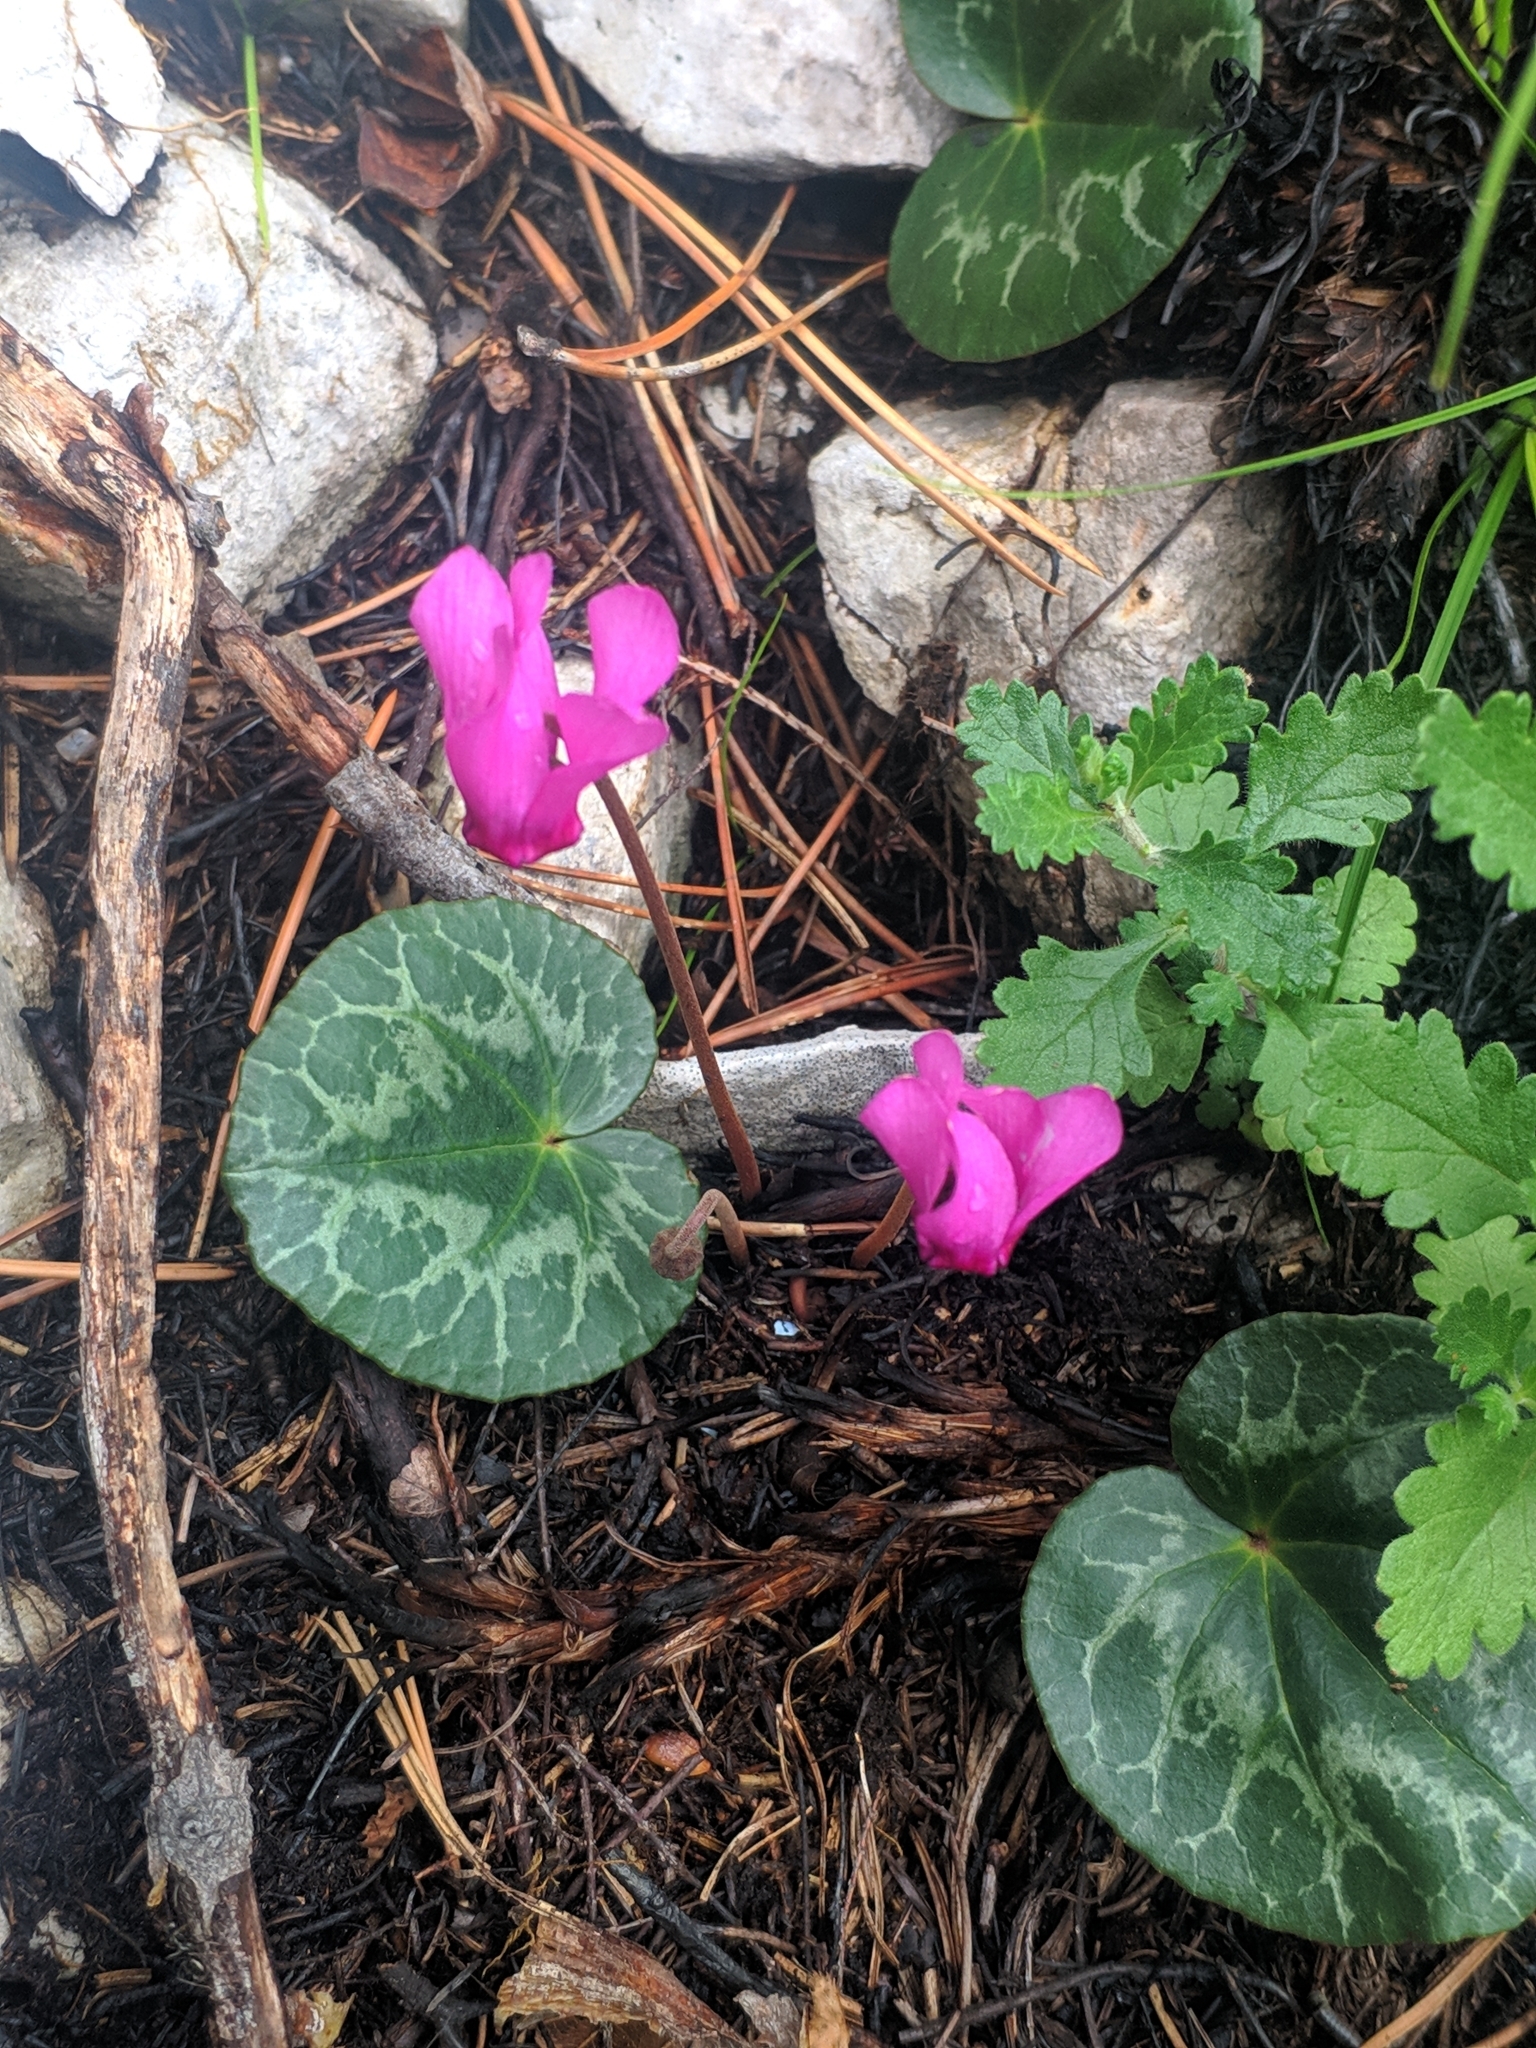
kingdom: Plantae
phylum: Tracheophyta
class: Magnoliopsida
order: Ericales
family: Primulaceae
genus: Cyclamen
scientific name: Cyclamen purpurascens
